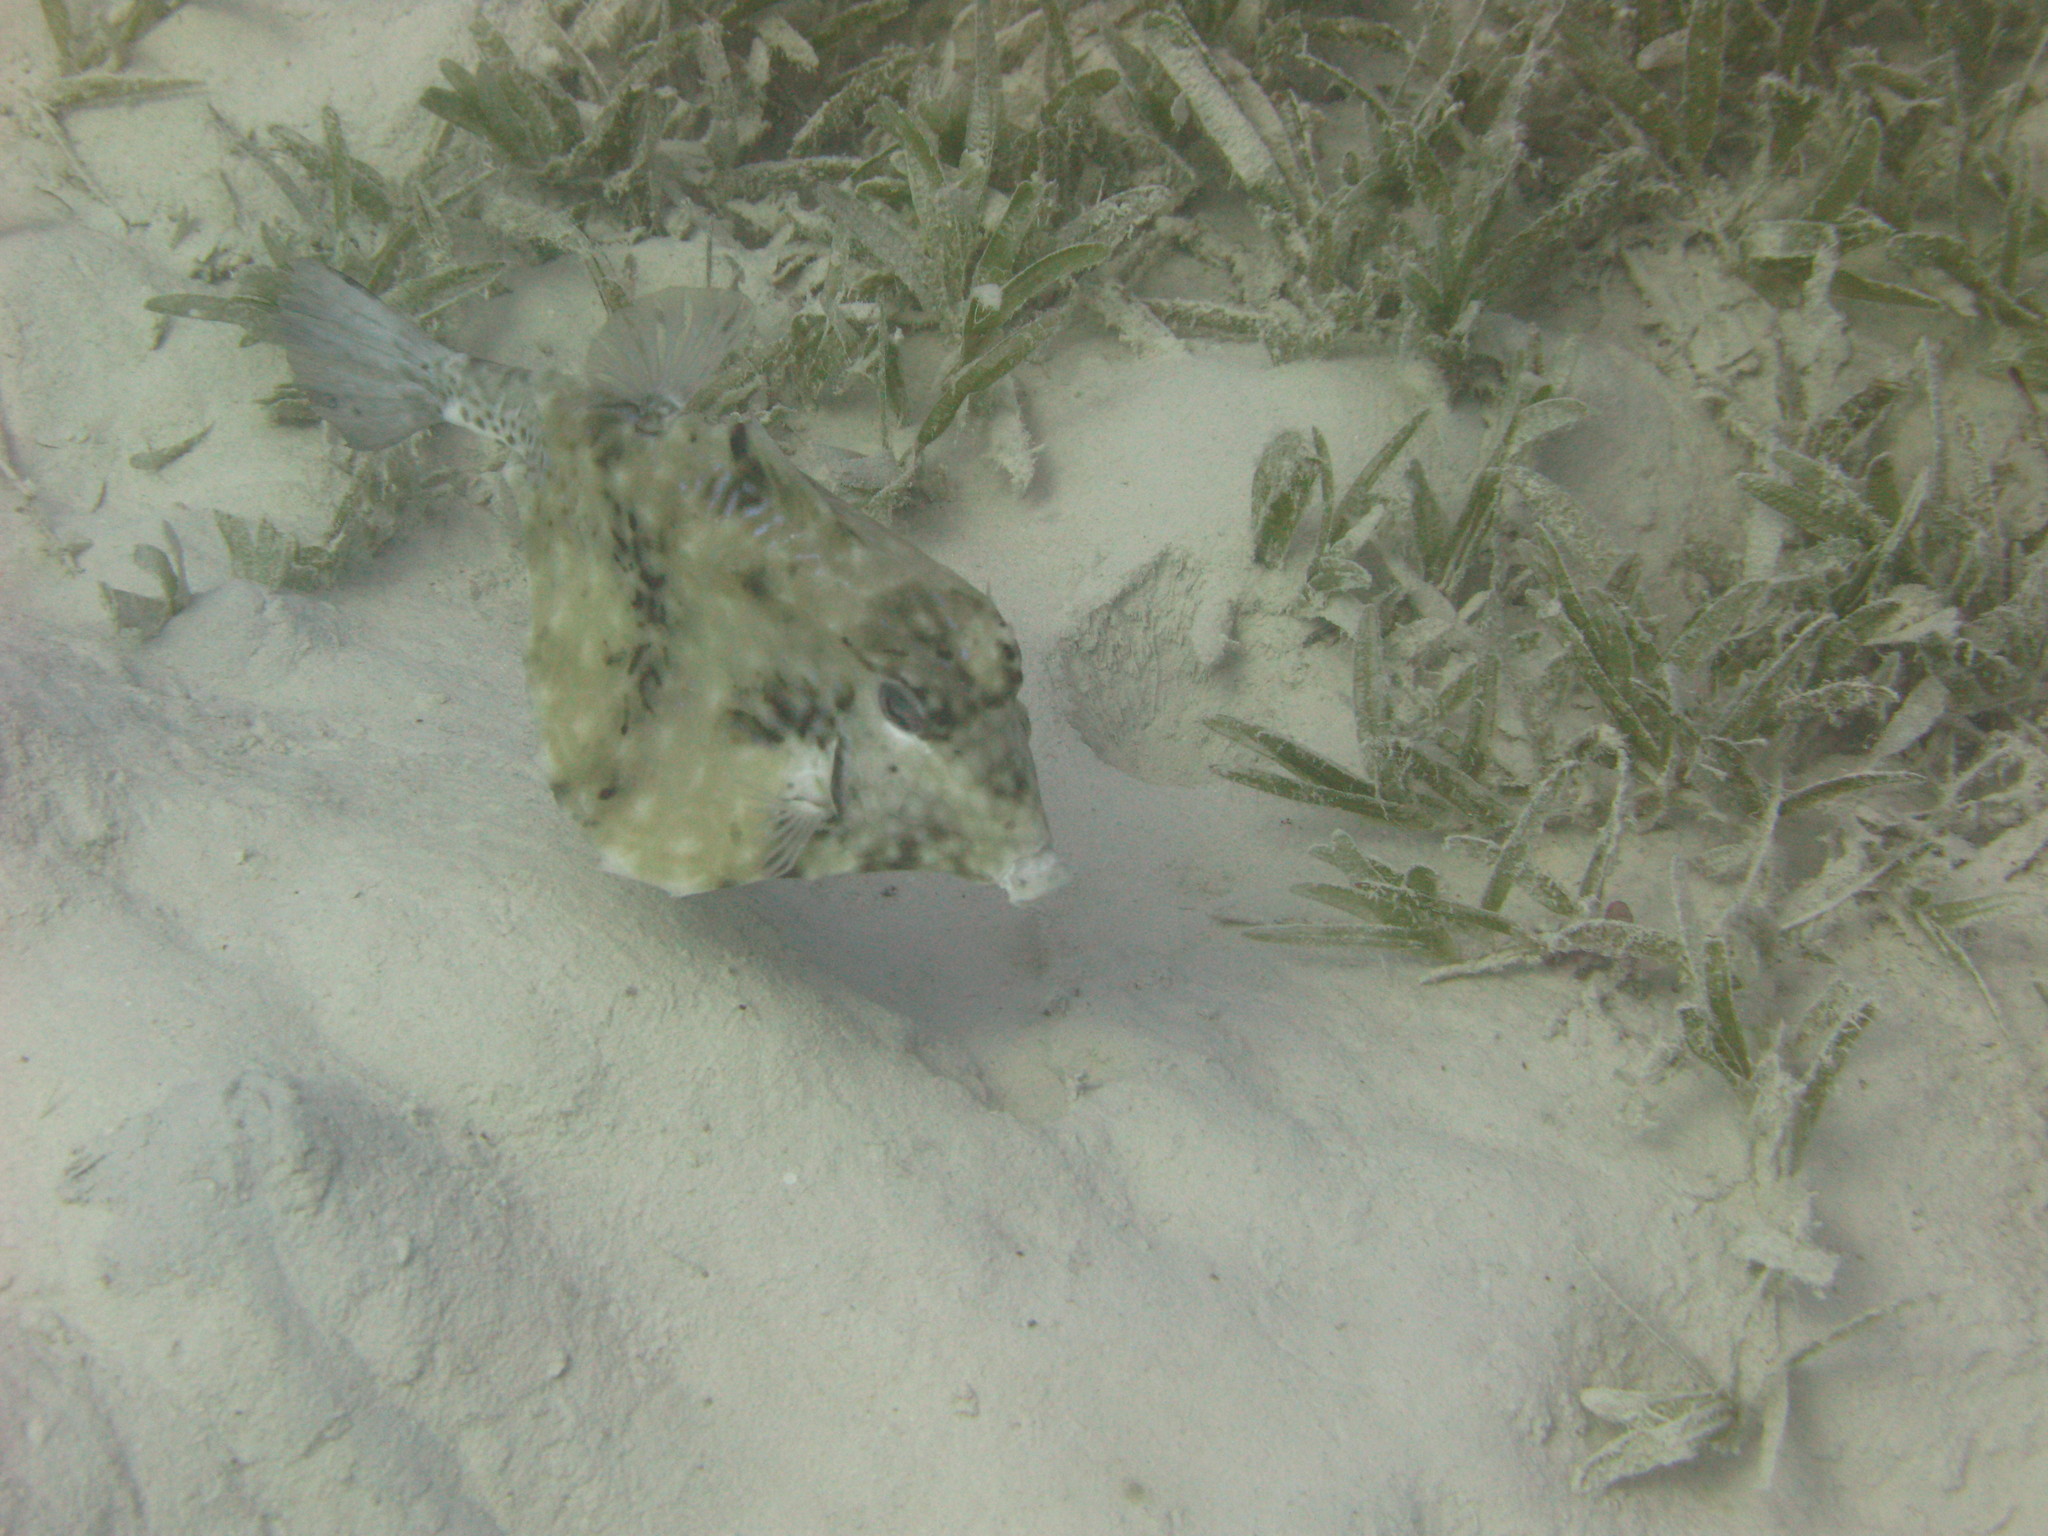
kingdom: Animalia
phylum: Chordata
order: Tetraodontiformes
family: Ostraciidae
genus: Tetrosomus
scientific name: Tetrosomus gibbosus
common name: Humpback turretfish
